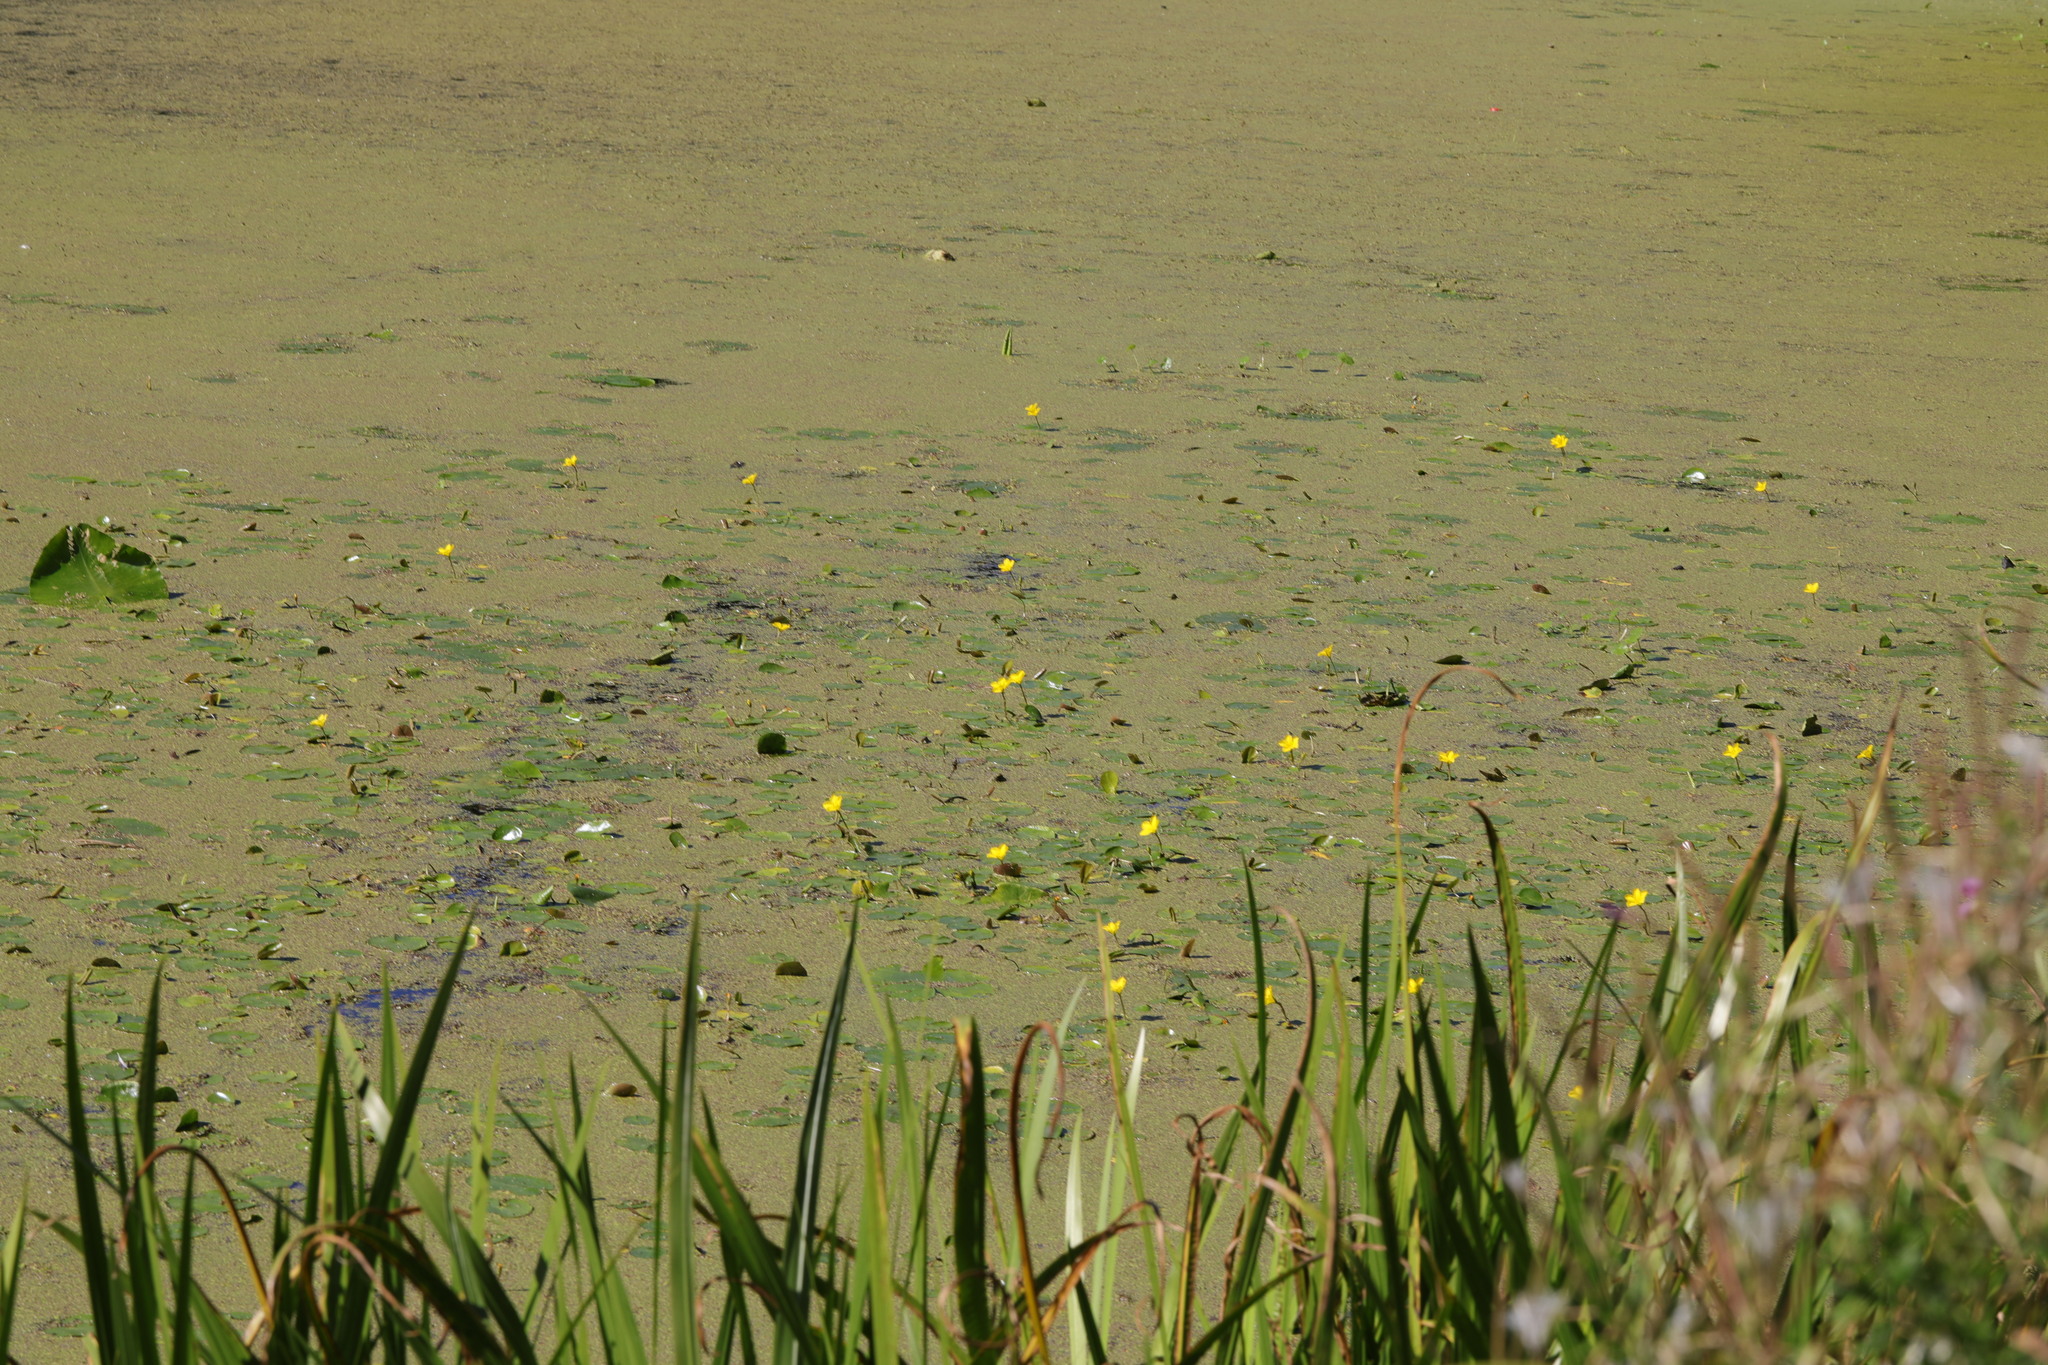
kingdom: Plantae
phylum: Tracheophyta
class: Magnoliopsida
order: Asterales
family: Menyanthaceae
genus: Nymphoides
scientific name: Nymphoides peltata
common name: Fringed water-lily
